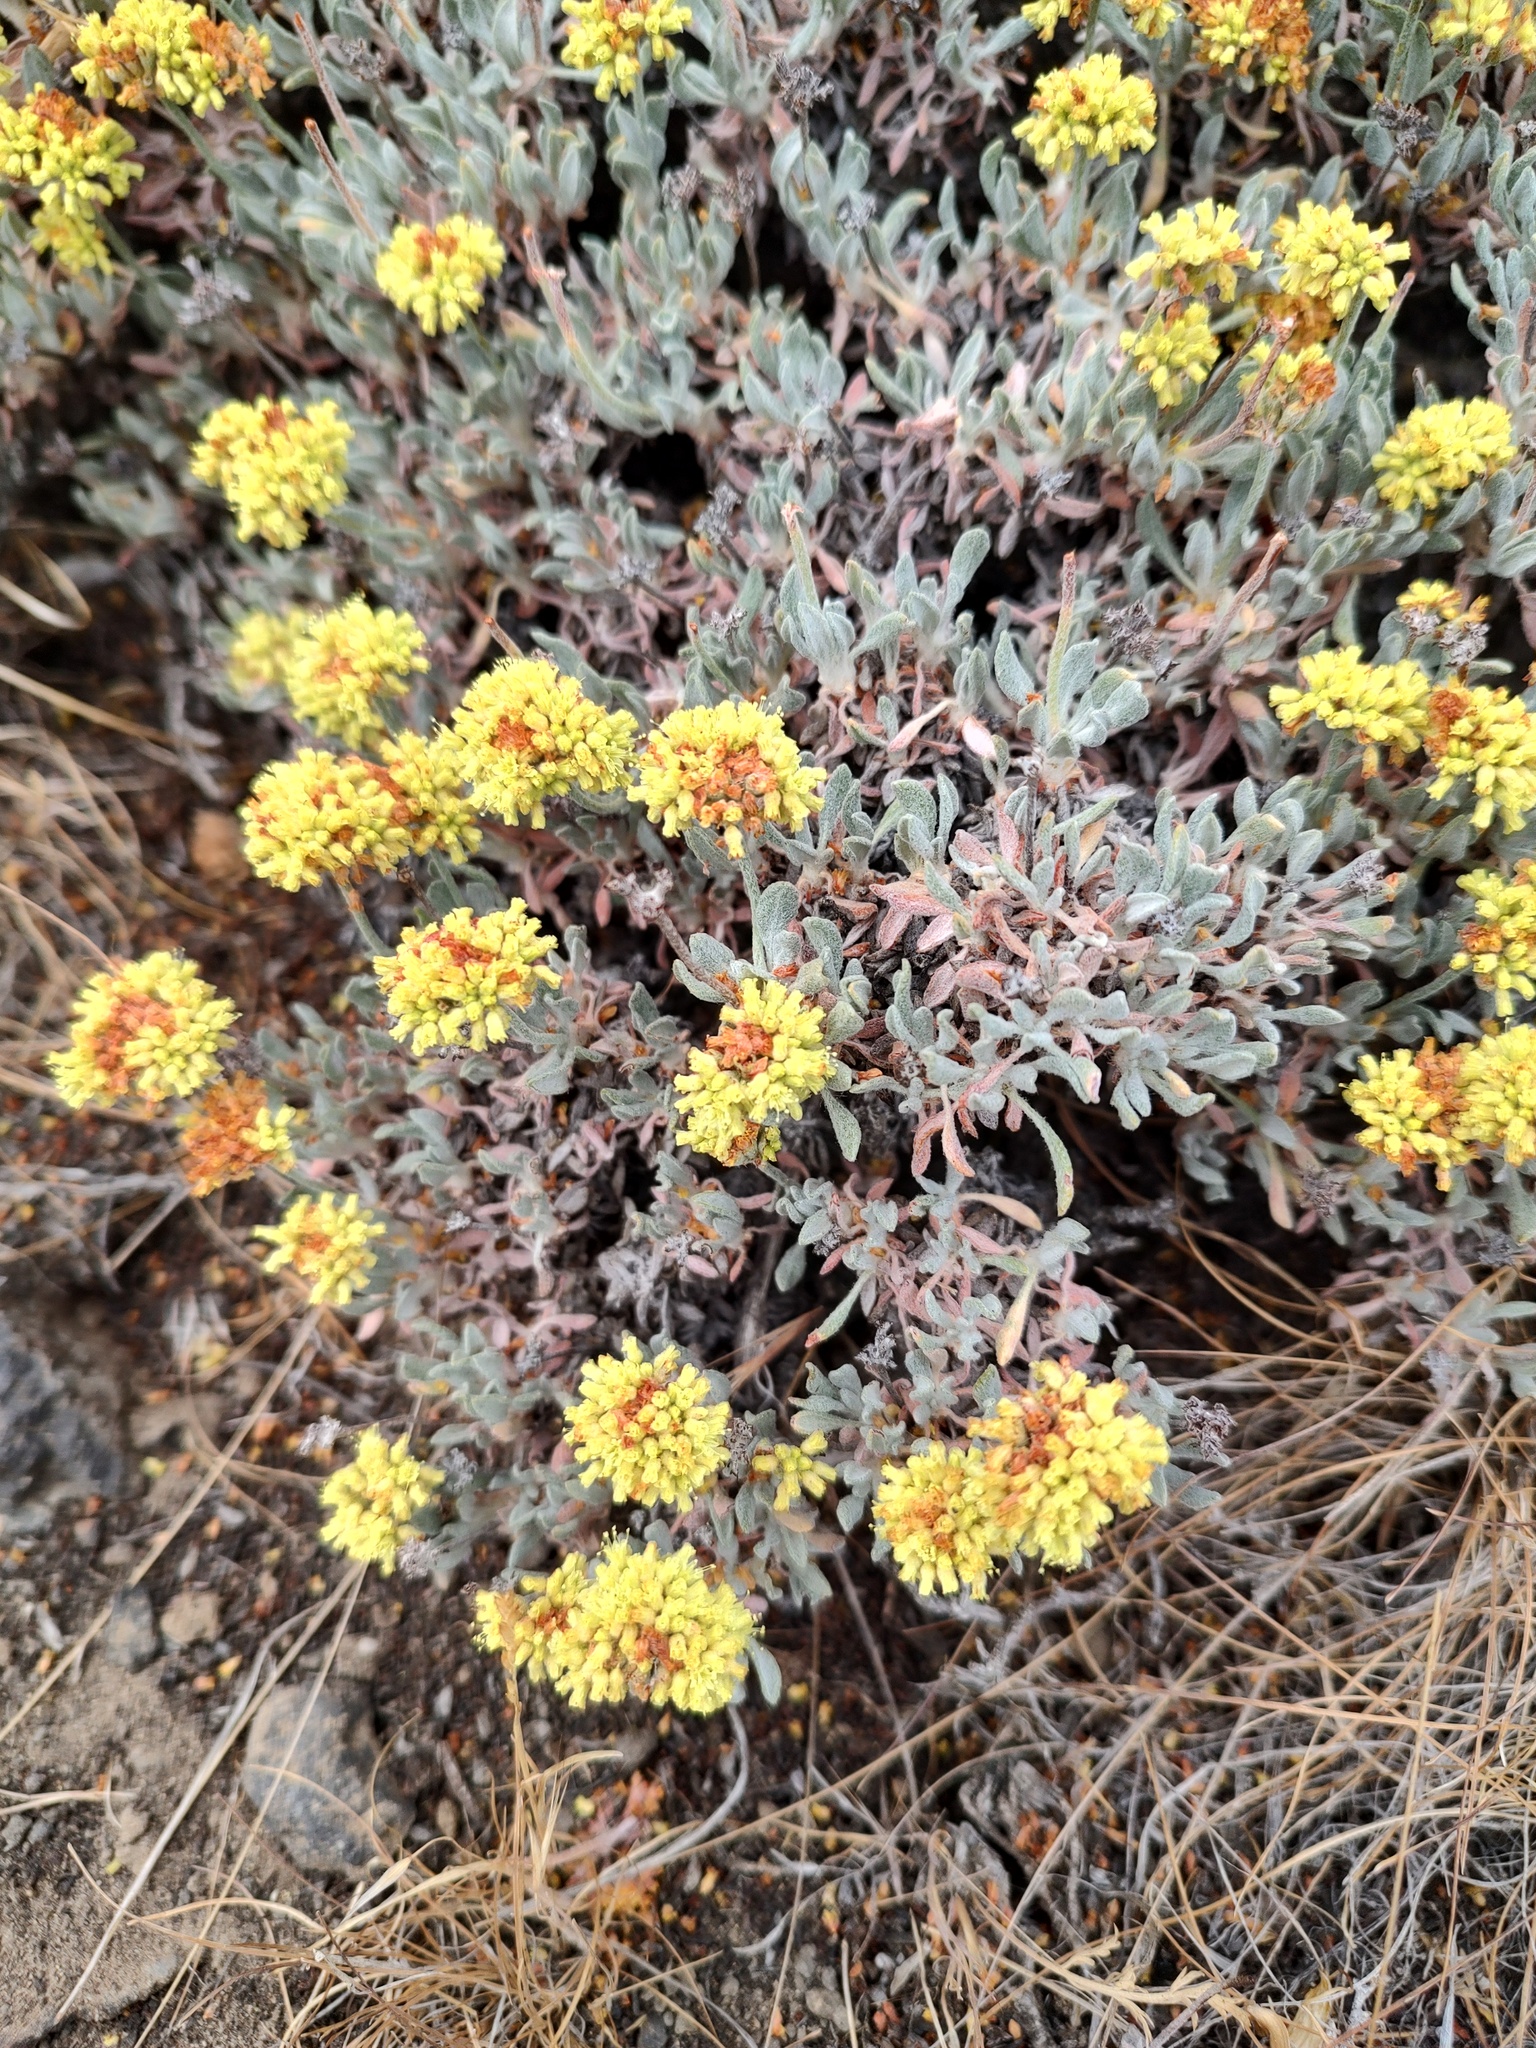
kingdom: Plantae
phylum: Tracheophyta
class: Magnoliopsida
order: Caryophyllales
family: Polygonaceae
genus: Eriogonum
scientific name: Eriogonum codium
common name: Umtanum desert wild buckwheat
